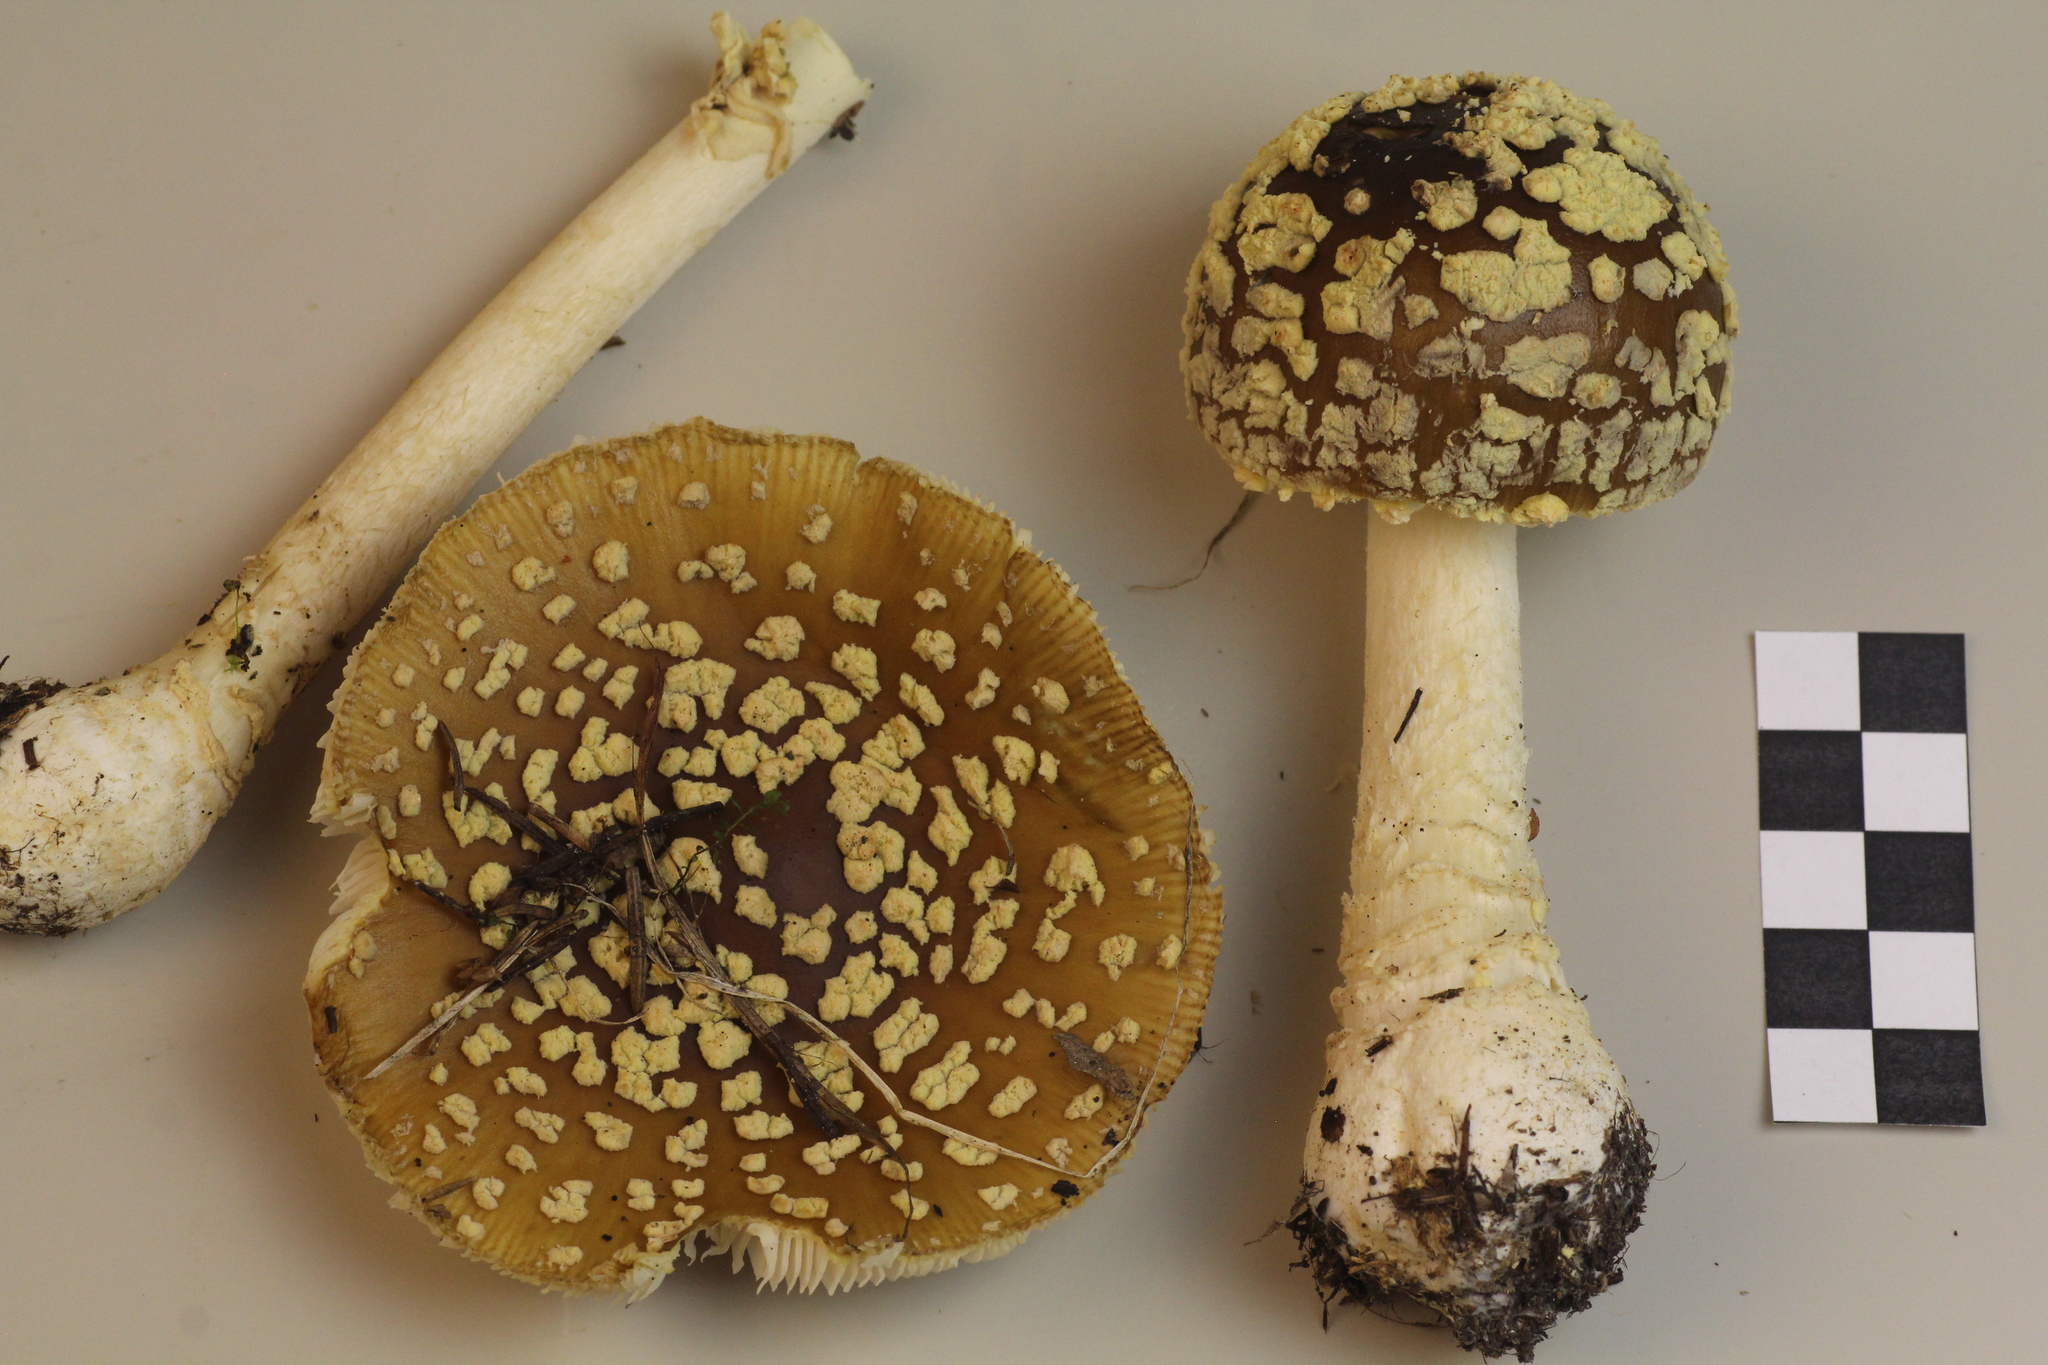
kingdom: Fungi
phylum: Basidiomycota
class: Agaricomycetes
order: Agaricales
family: Amanitaceae
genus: Amanita
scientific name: Amanita regalis
